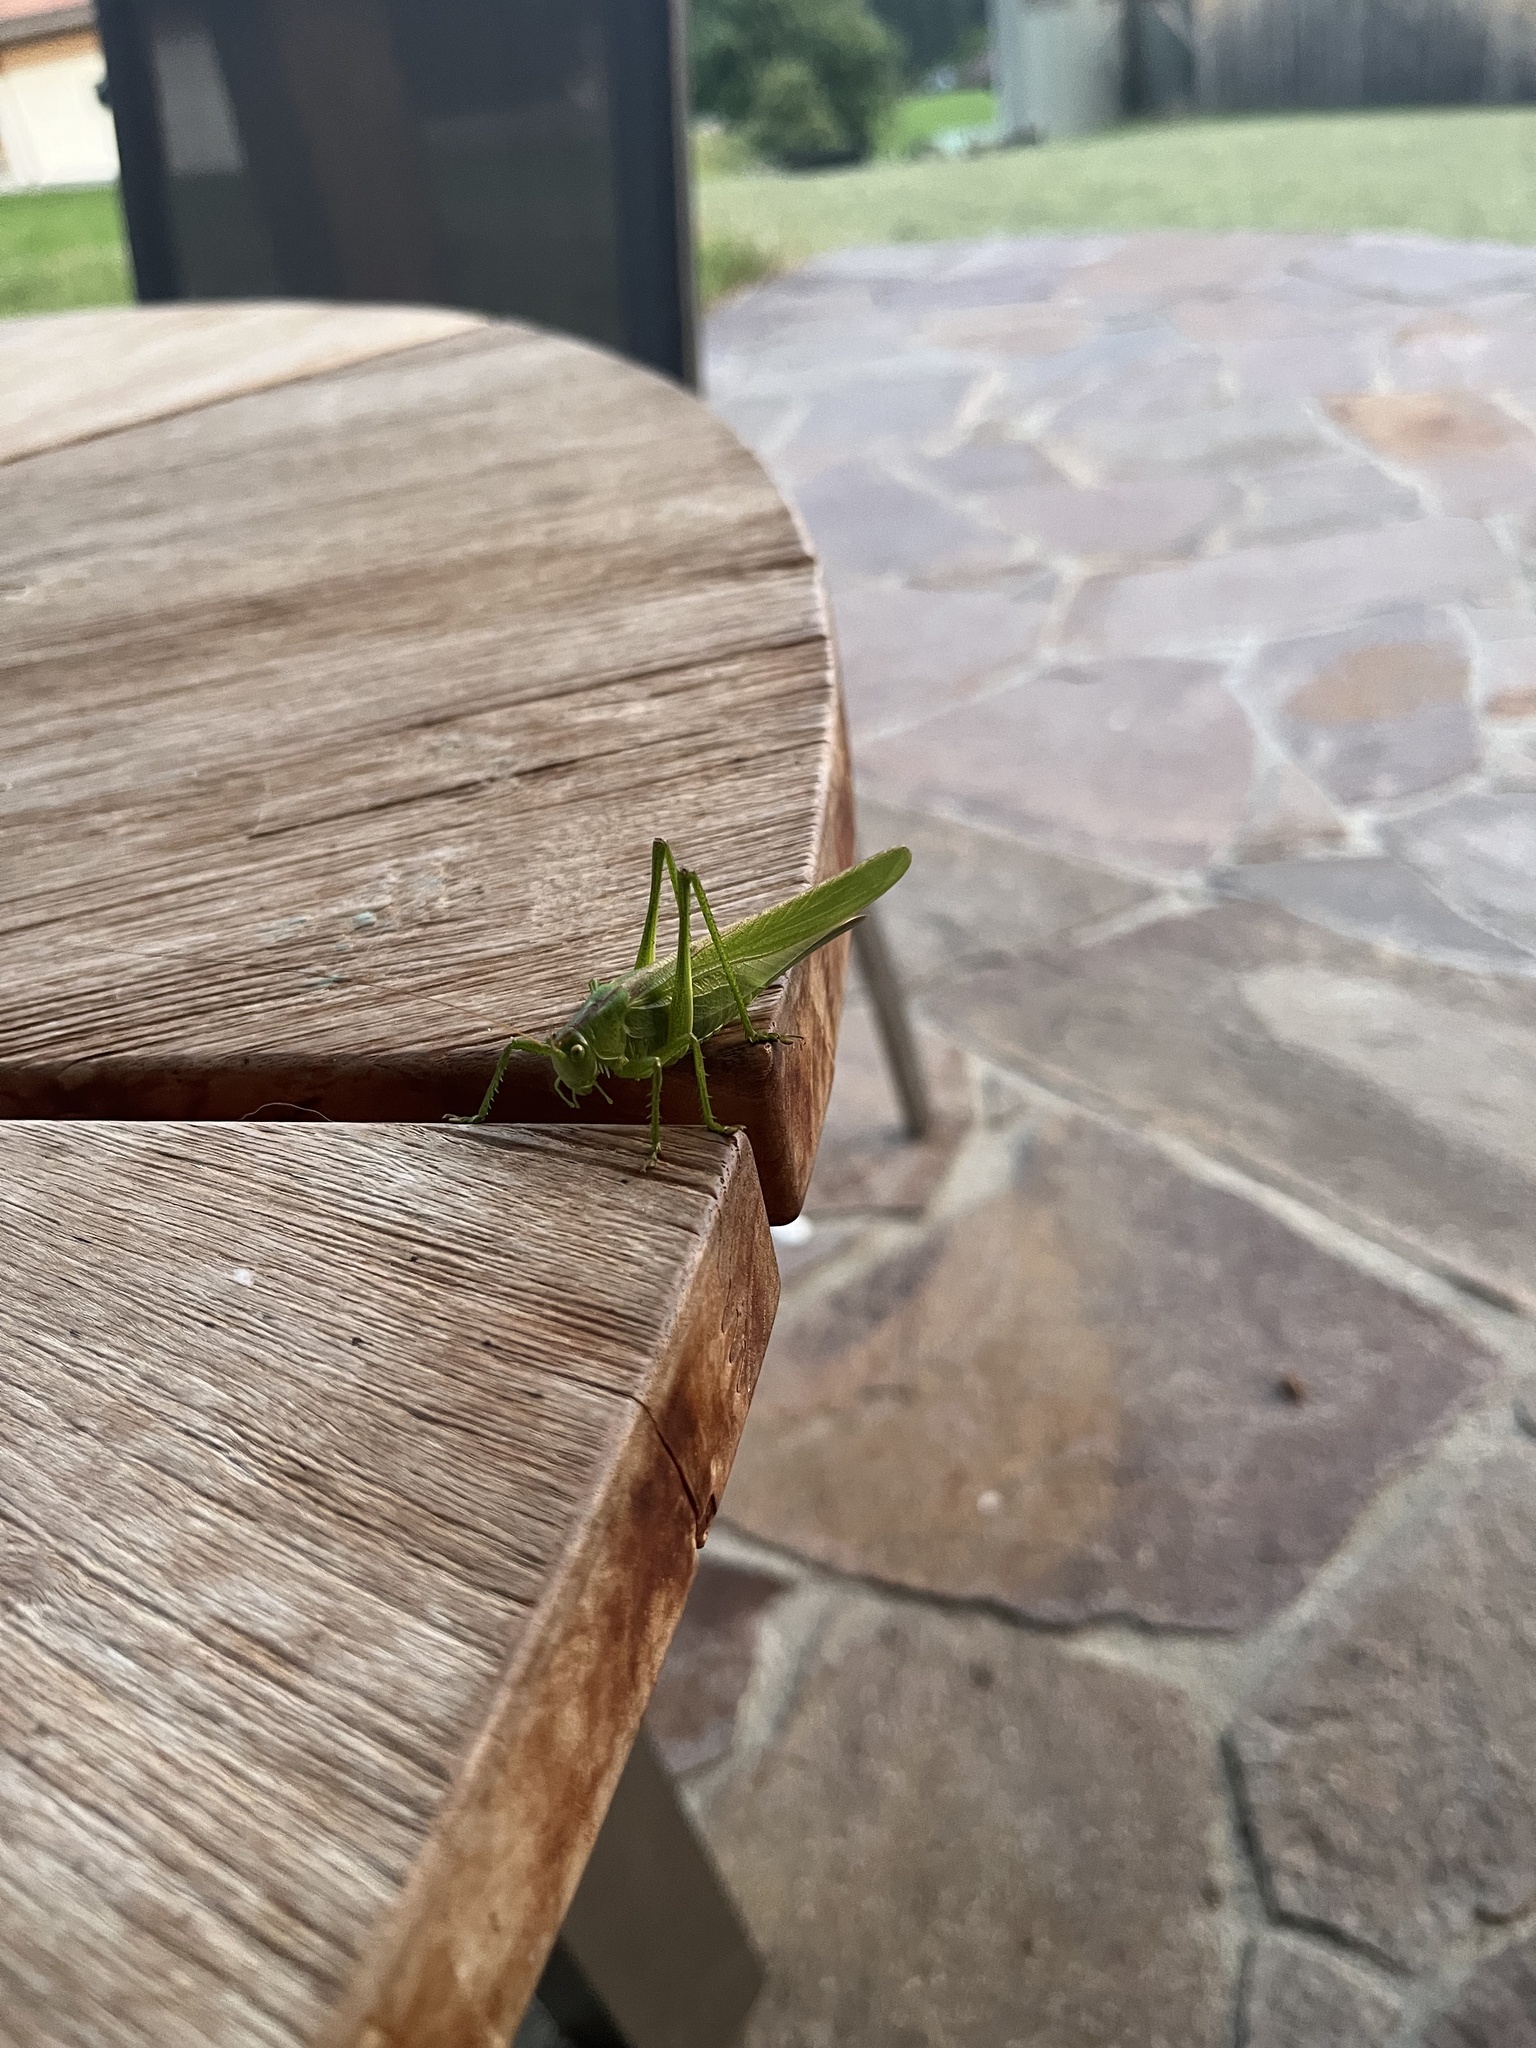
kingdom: Animalia
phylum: Arthropoda
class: Insecta
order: Orthoptera
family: Tettigoniidae
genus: Tettigonia
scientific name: Tettigonia viridissima
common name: Great green bush-cricket
